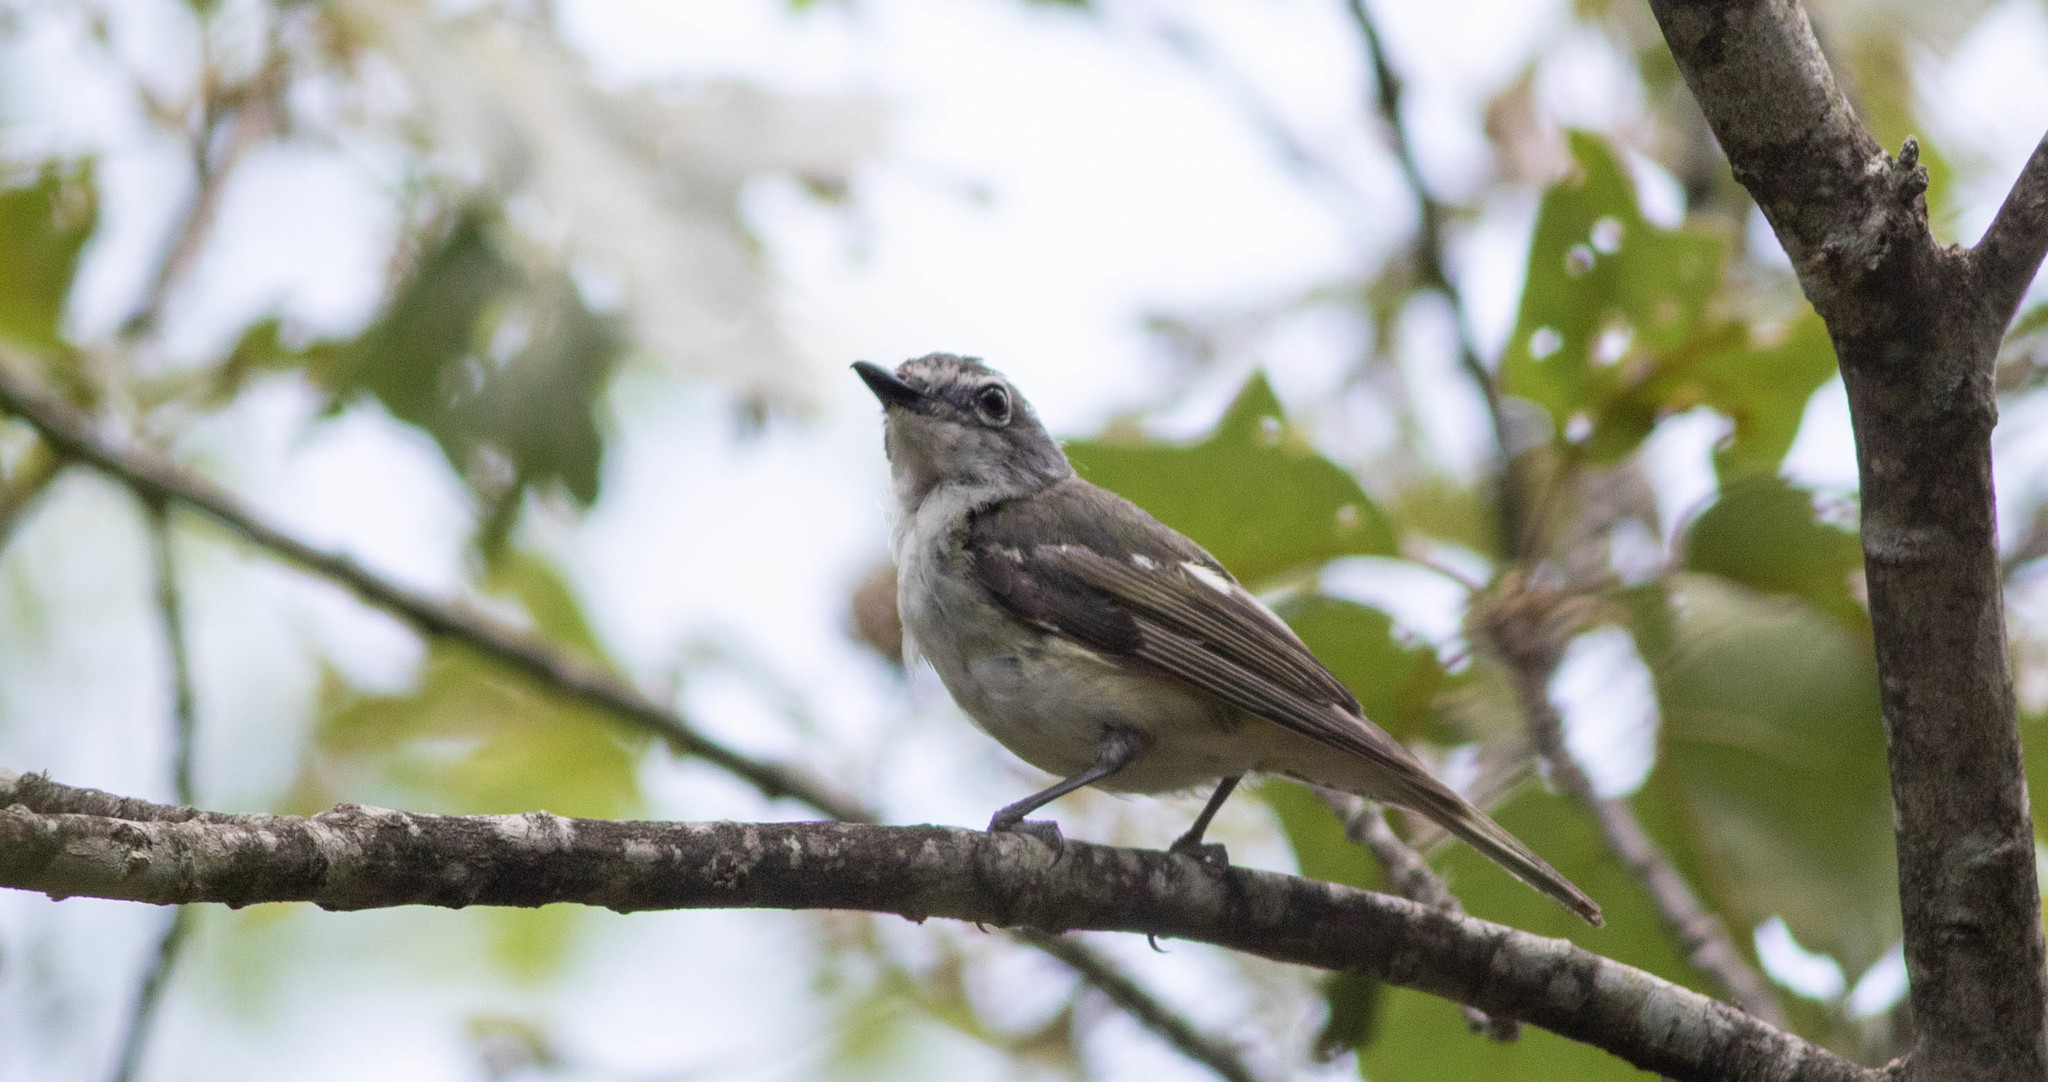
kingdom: Animalia
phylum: Chordata
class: Aves
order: Passeriformes
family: Vireonidae
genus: Vireo
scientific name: Vireo solitarius
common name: Blue-headed vireo
